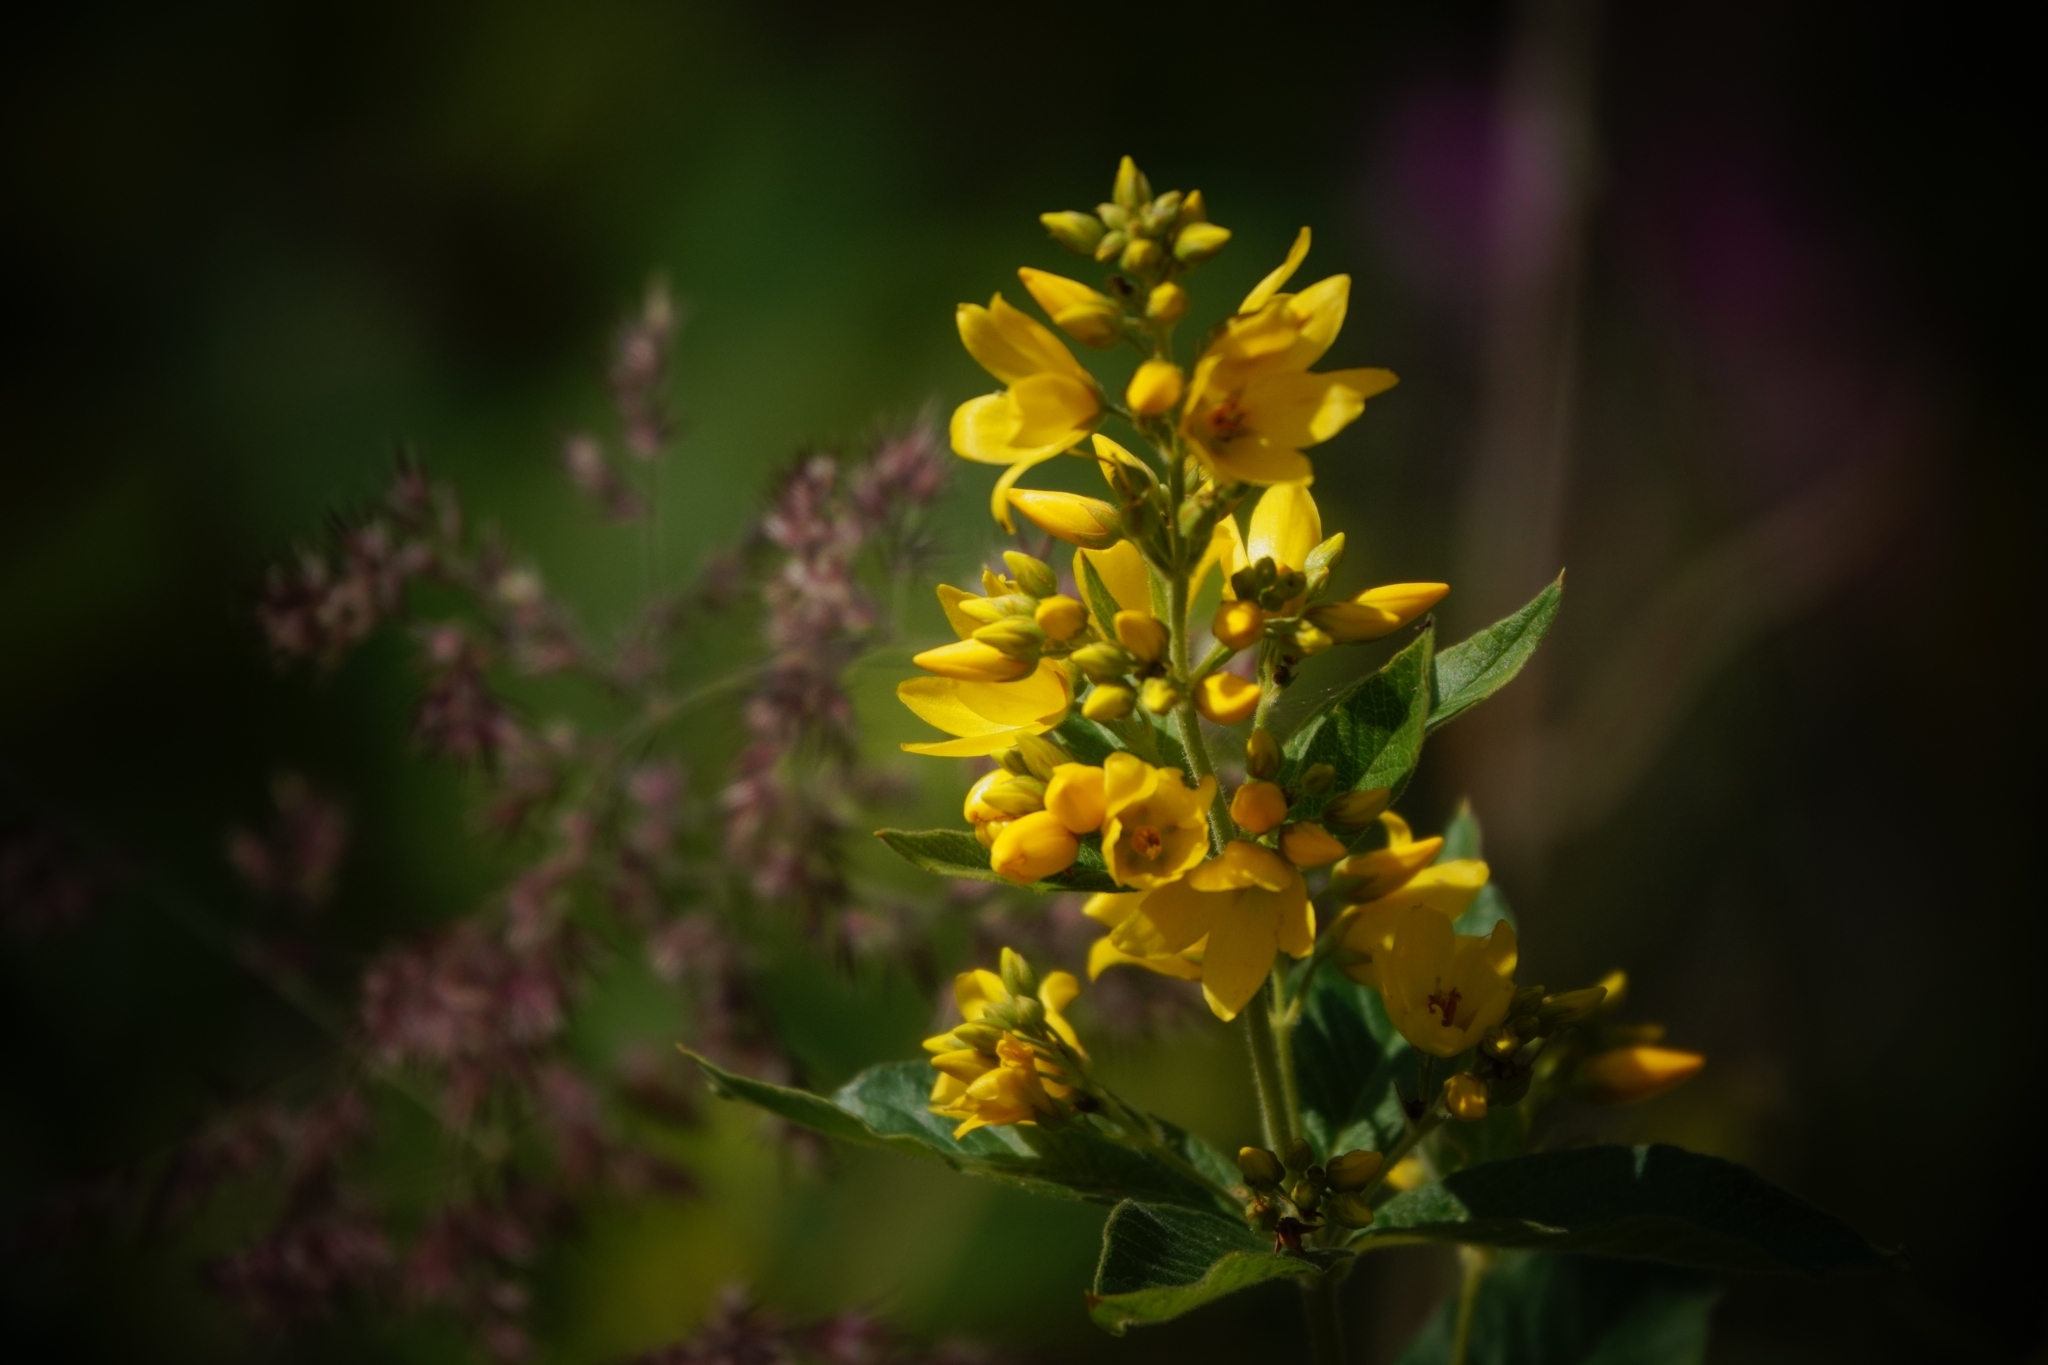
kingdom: Plantae
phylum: Tracheophyta
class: Magnoliopsida
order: Ericales
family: Primulaceae
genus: Lysimachia
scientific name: Lysimachia vulgaris
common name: Yellow loosestrife
